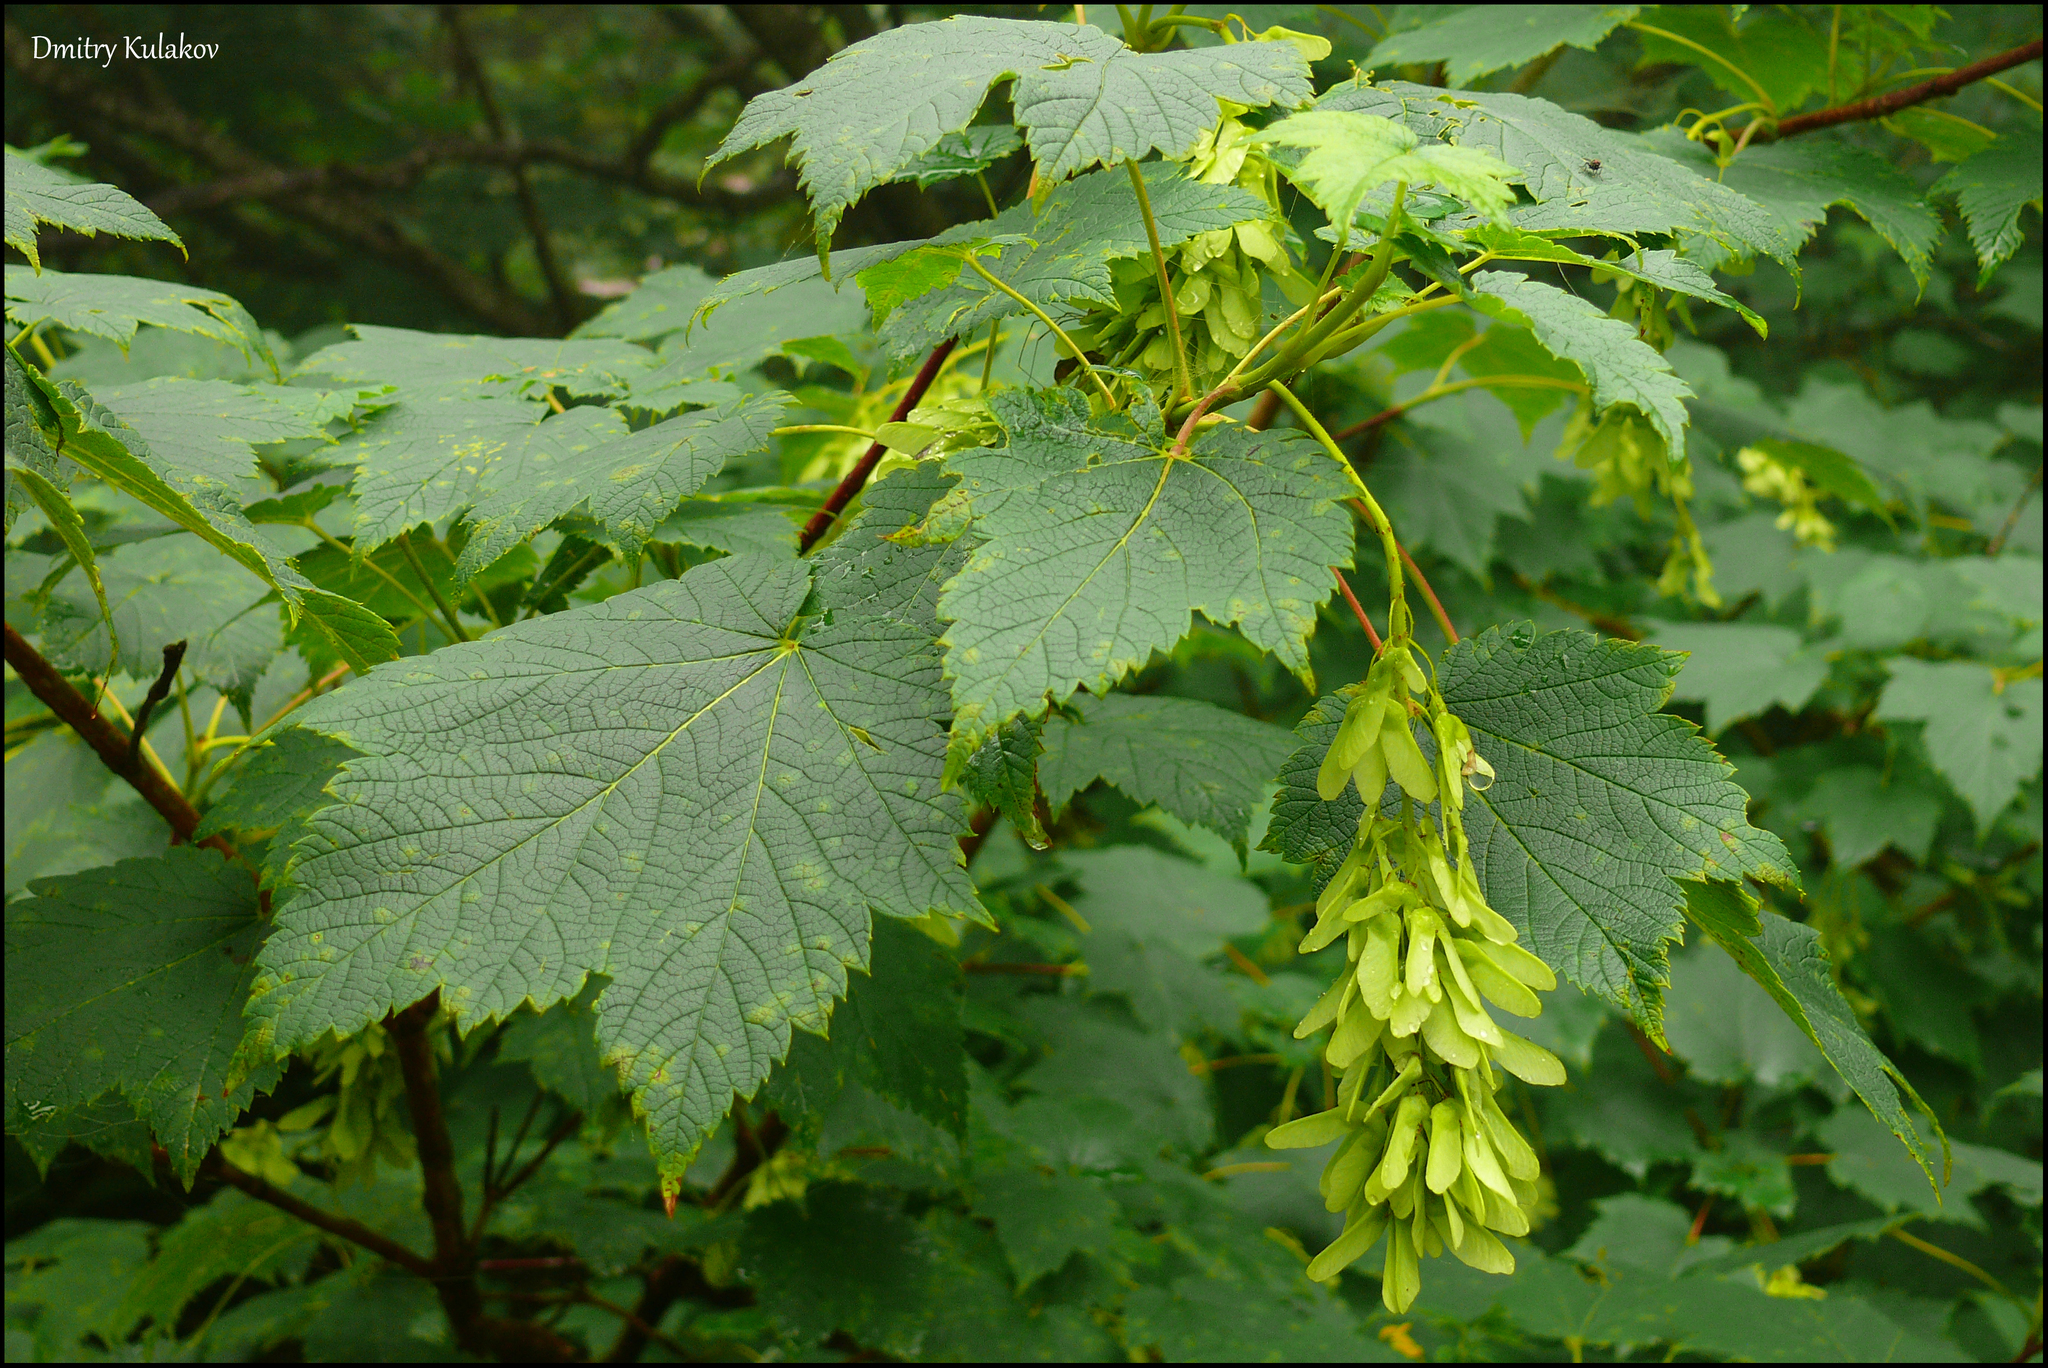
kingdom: Plantae
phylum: Tracheophyta
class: Magnoliopsida
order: Sapindales
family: Sapindaceae
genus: Acer
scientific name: Acer ukurunduense
